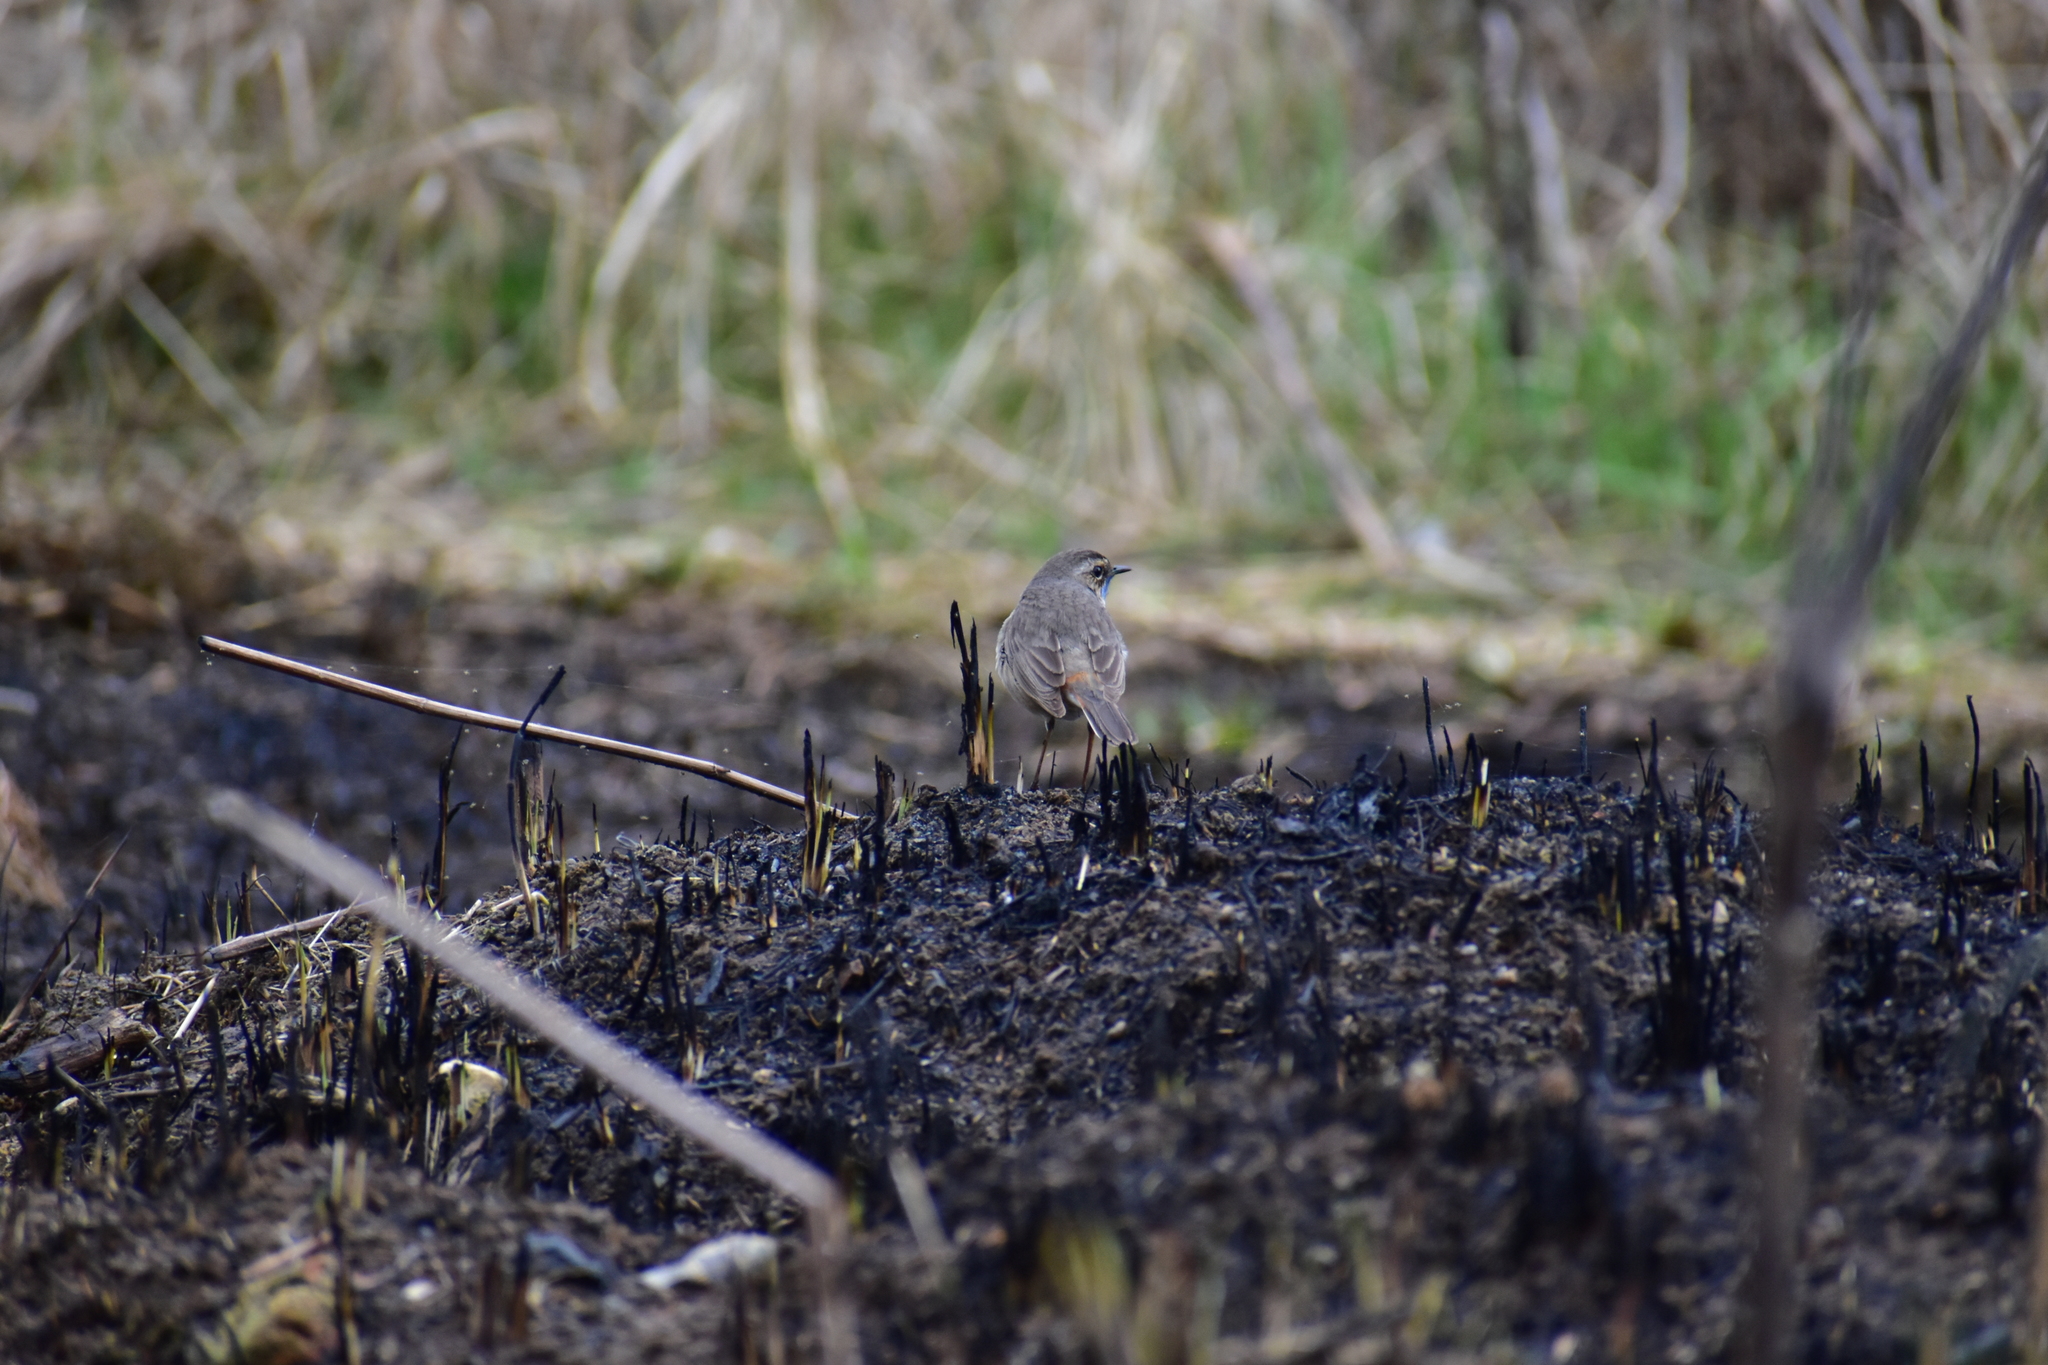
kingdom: Animalia
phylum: Chordata
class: Aves
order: Passeriformes
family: Muscicapidae
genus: Luscinia
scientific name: Luscinia svecica
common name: Bluethroat
